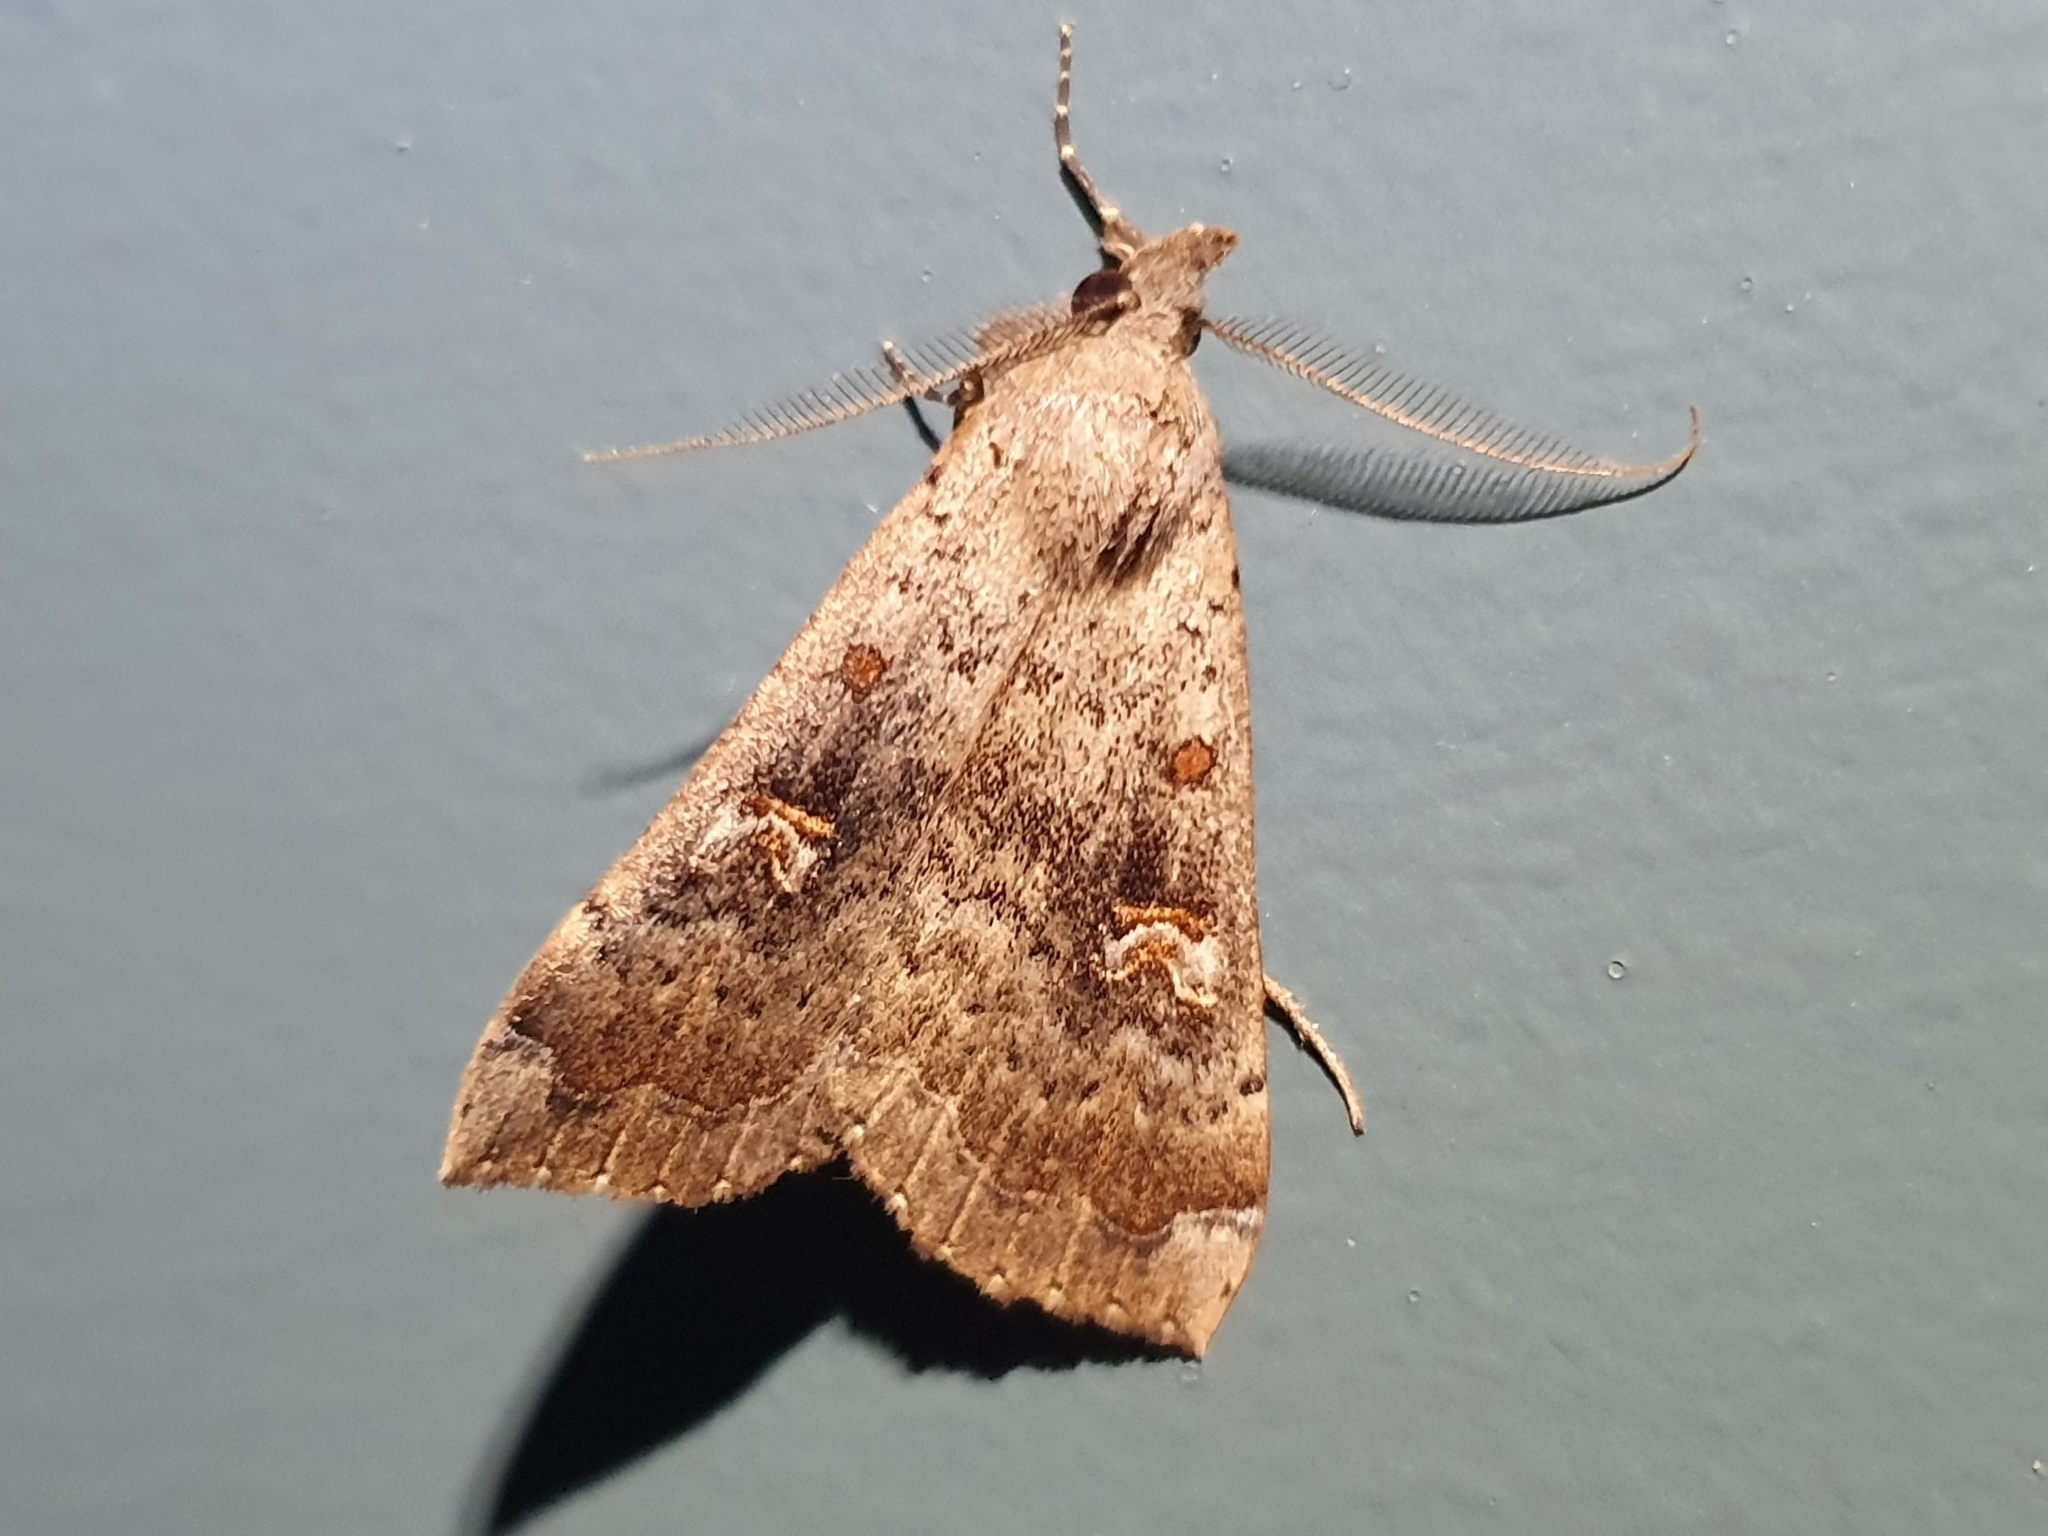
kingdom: Animalia
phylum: Arthropoda
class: Insecta
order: Lepidoptera
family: Erebidae
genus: Rhapsa
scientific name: Rhapsa scotosialis
